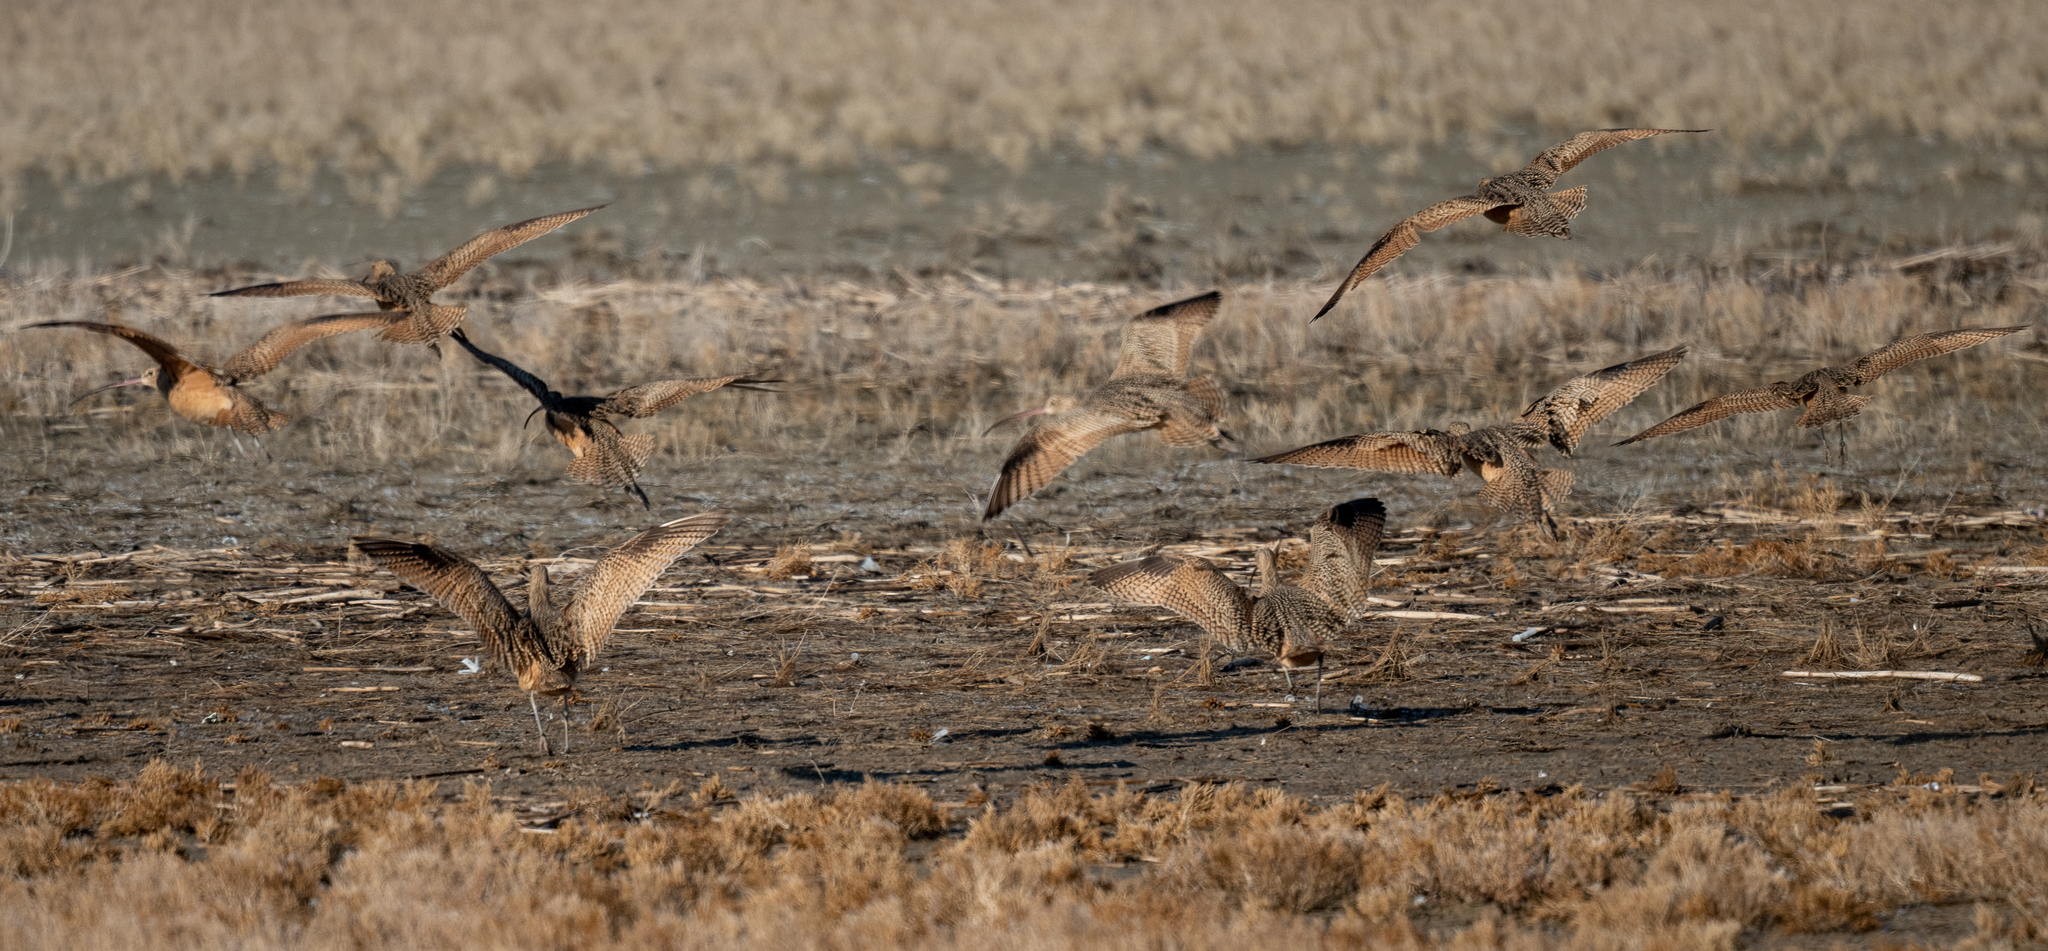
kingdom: Animalia
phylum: Chordata
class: Aves
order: Charadriiformes
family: Scolopacidae
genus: Numenius
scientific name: Numenius americanus
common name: Long-billed curlew
